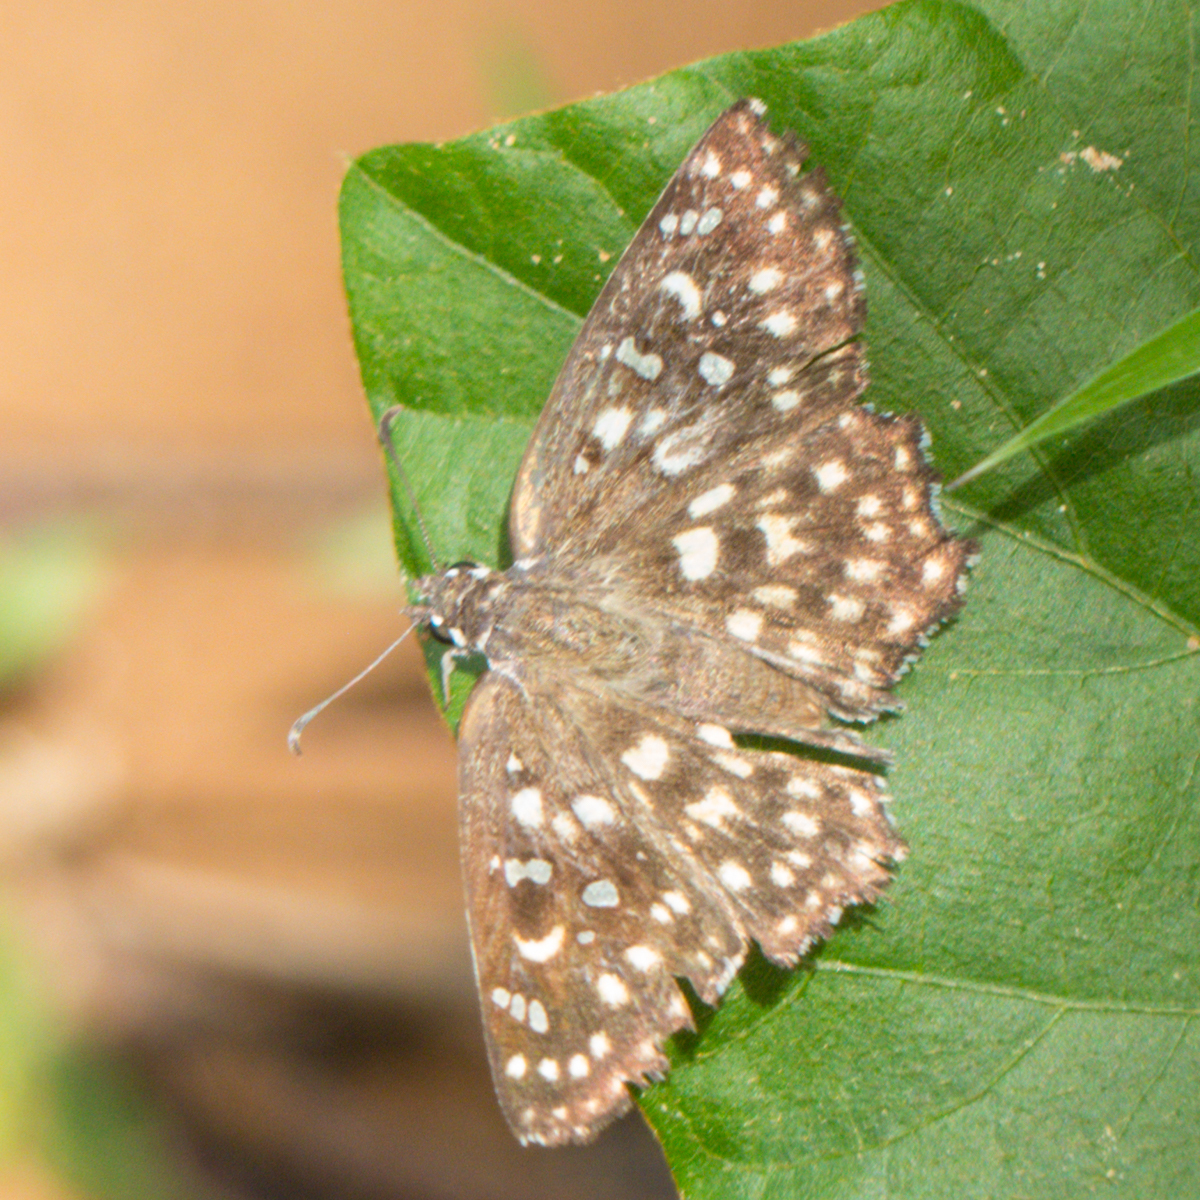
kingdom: Animalia
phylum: Arthropoda
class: Insecta
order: Lepidoptera
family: Hesperiidae
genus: Caprona
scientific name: Caprona agama
